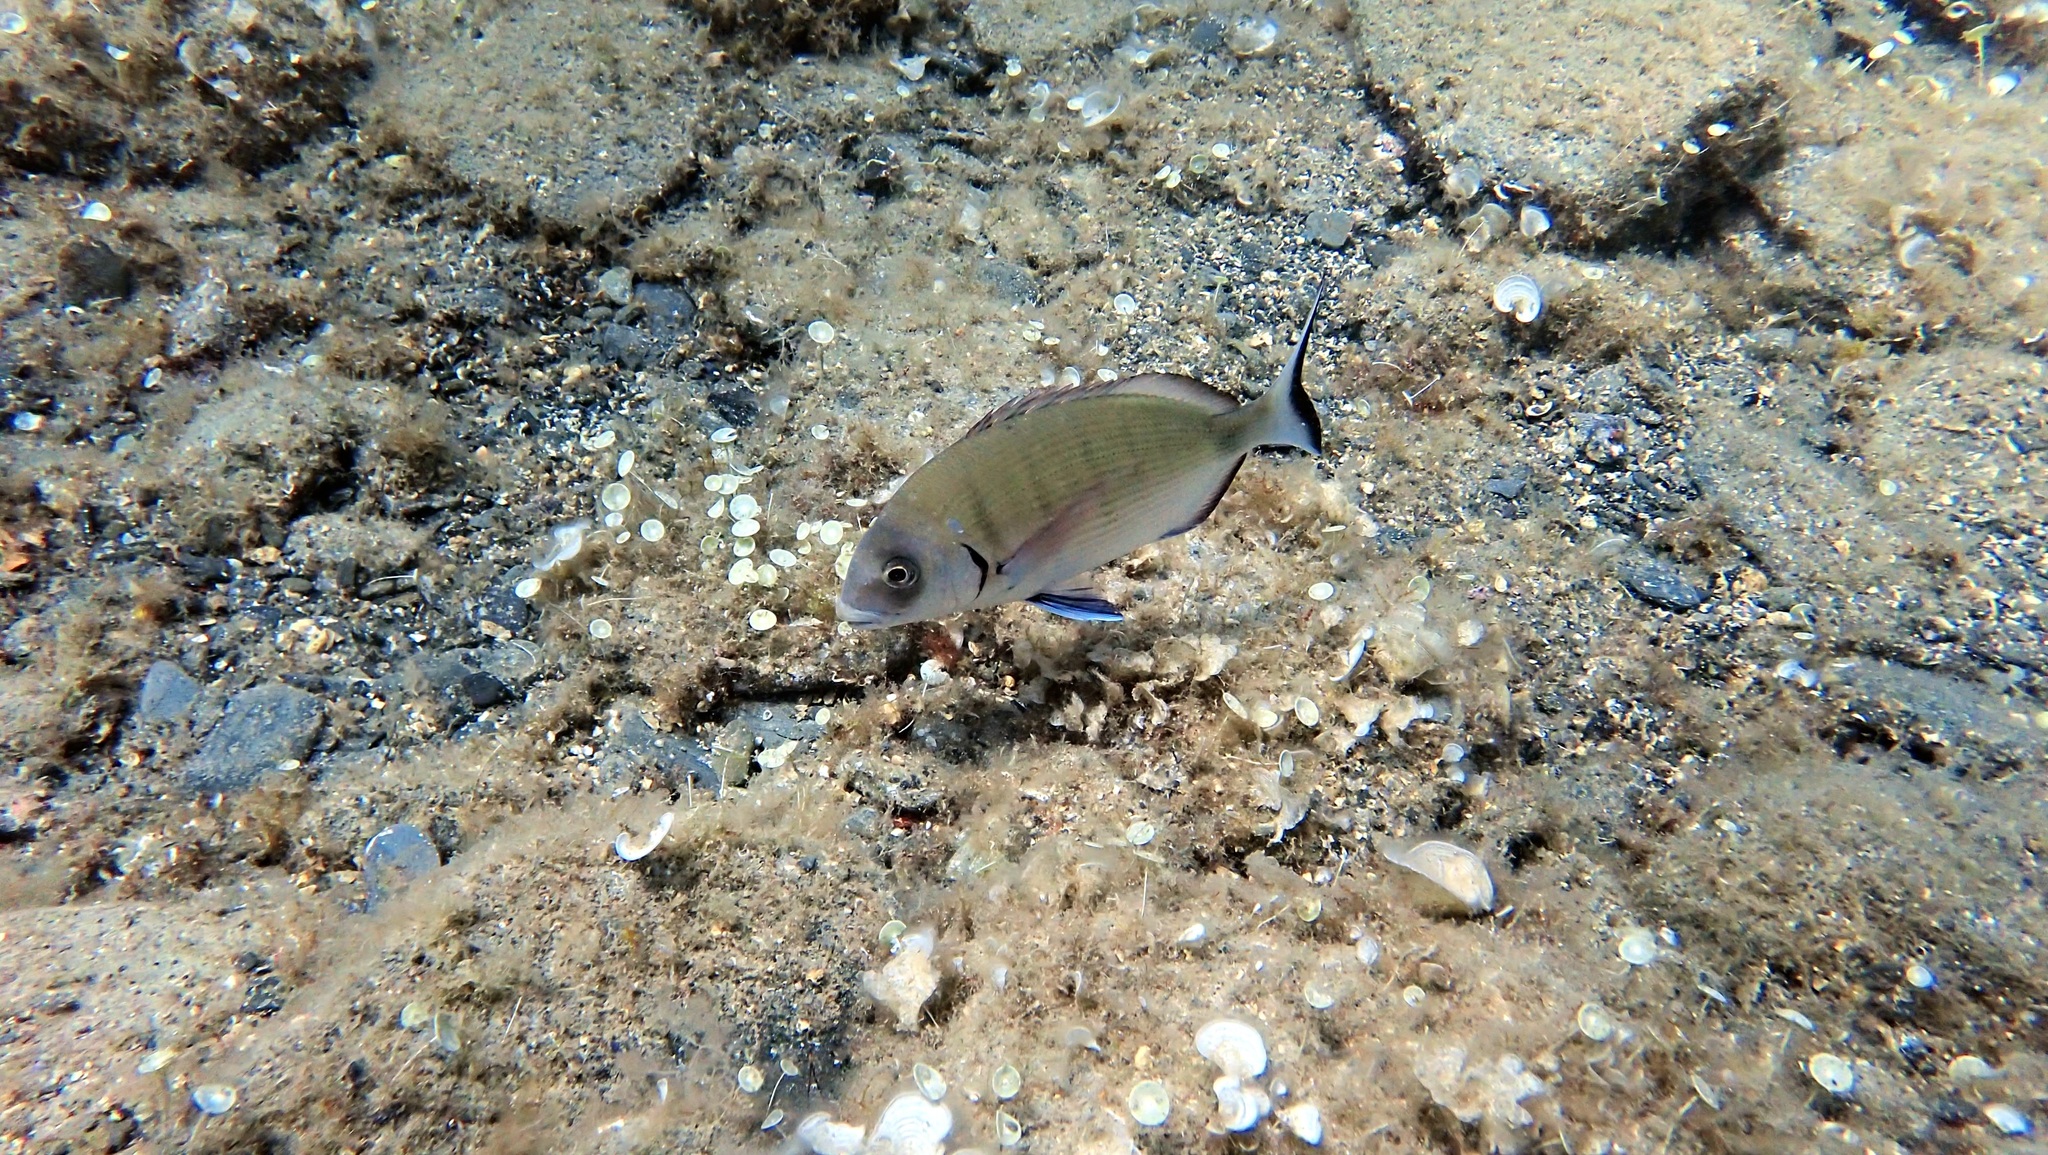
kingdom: Animalia
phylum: Chordata
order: Perciformes
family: Sparidae
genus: Diplodus
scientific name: Diplodus sargus
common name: White seabream
